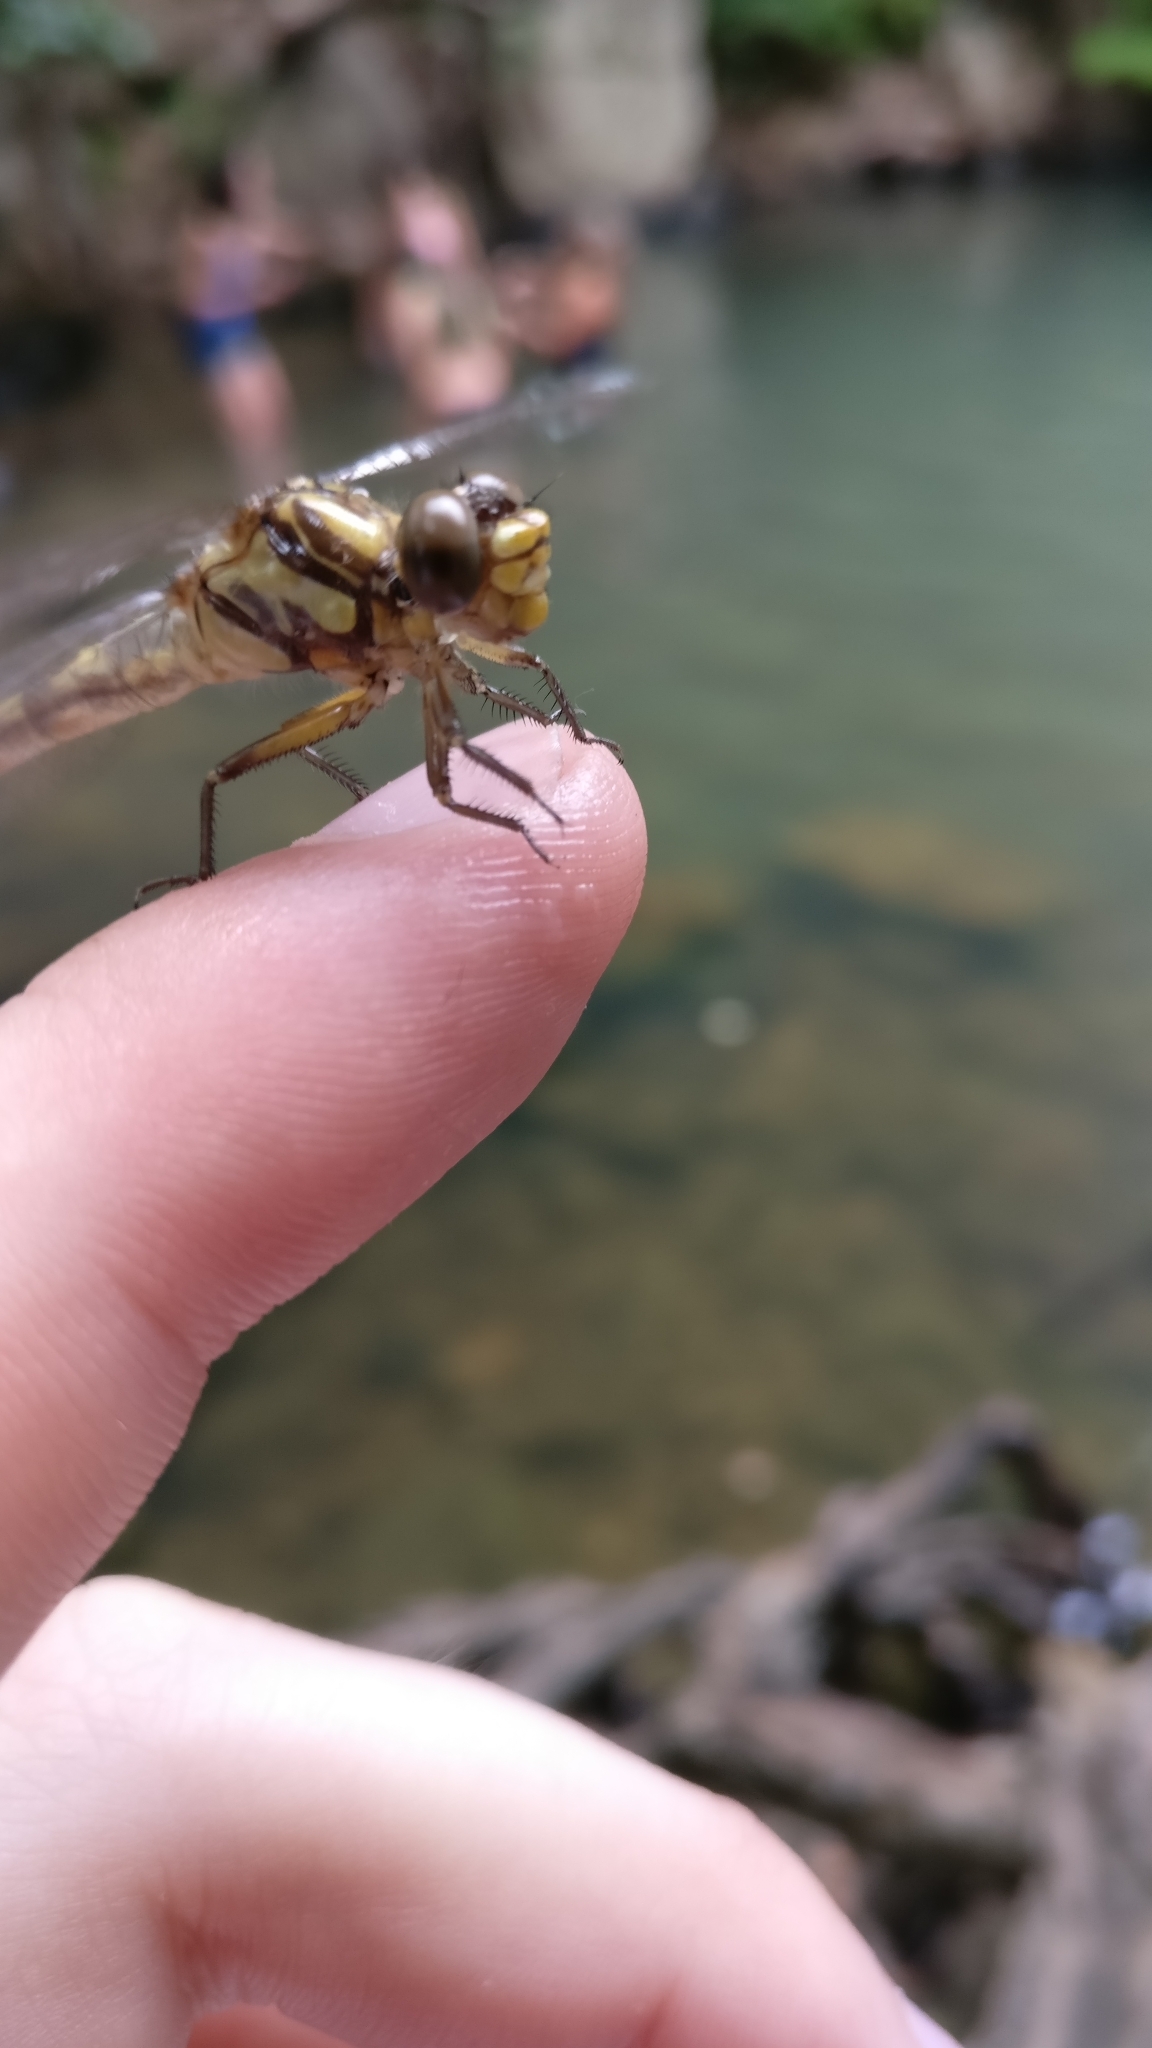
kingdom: Animalia
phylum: Arthropoda
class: Insecta
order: Odonata
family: Gomphidae
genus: Onychogomphus
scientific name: Onychogomphus uncatus
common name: Large pincertail
